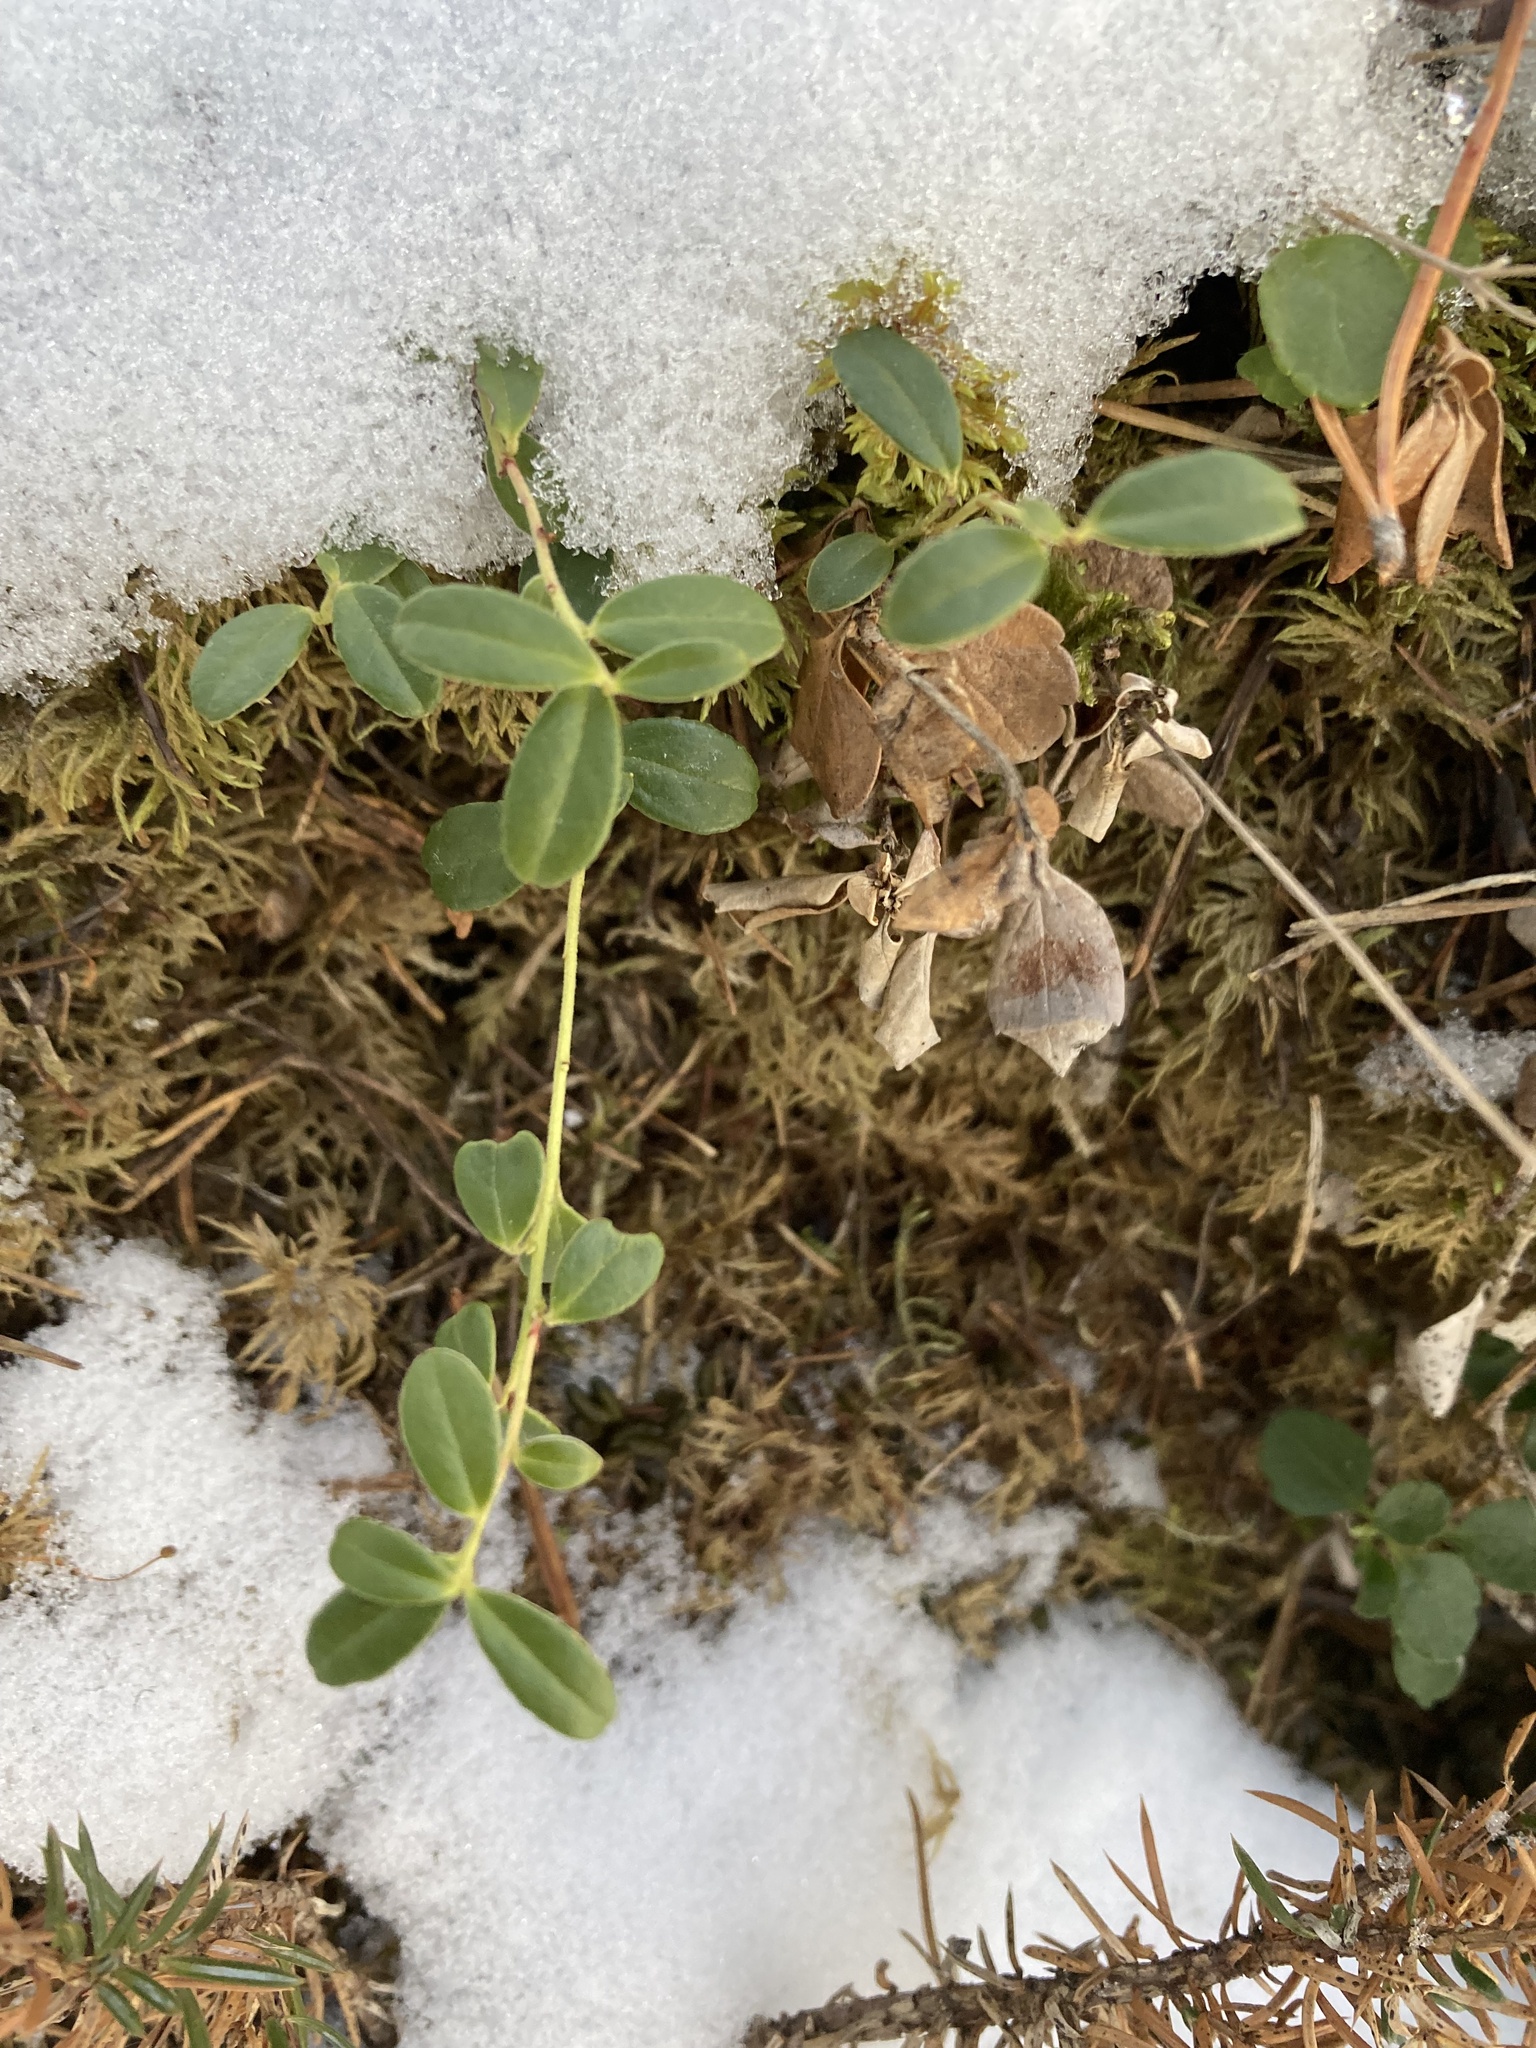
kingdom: Plantae
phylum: Tracheophyta
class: Magnoliopsida
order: Ericales
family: Ericaceae
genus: Vaccinium
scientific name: Vaccinium vitis-idaea
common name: Cowberry
